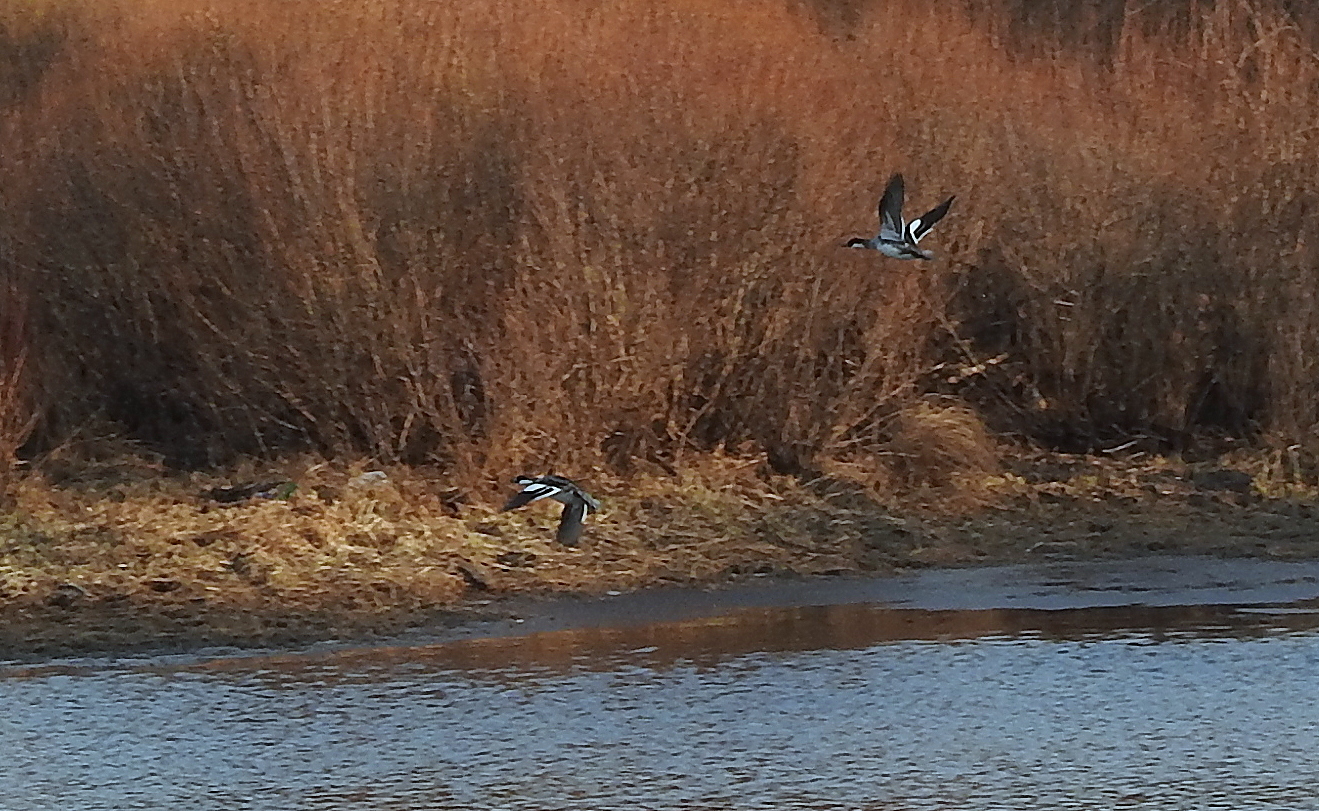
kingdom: Animalia
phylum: Chordata
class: Aves
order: Anseriformes
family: Anatidae
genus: Mergellus
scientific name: Mergellus albellus
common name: Smew
